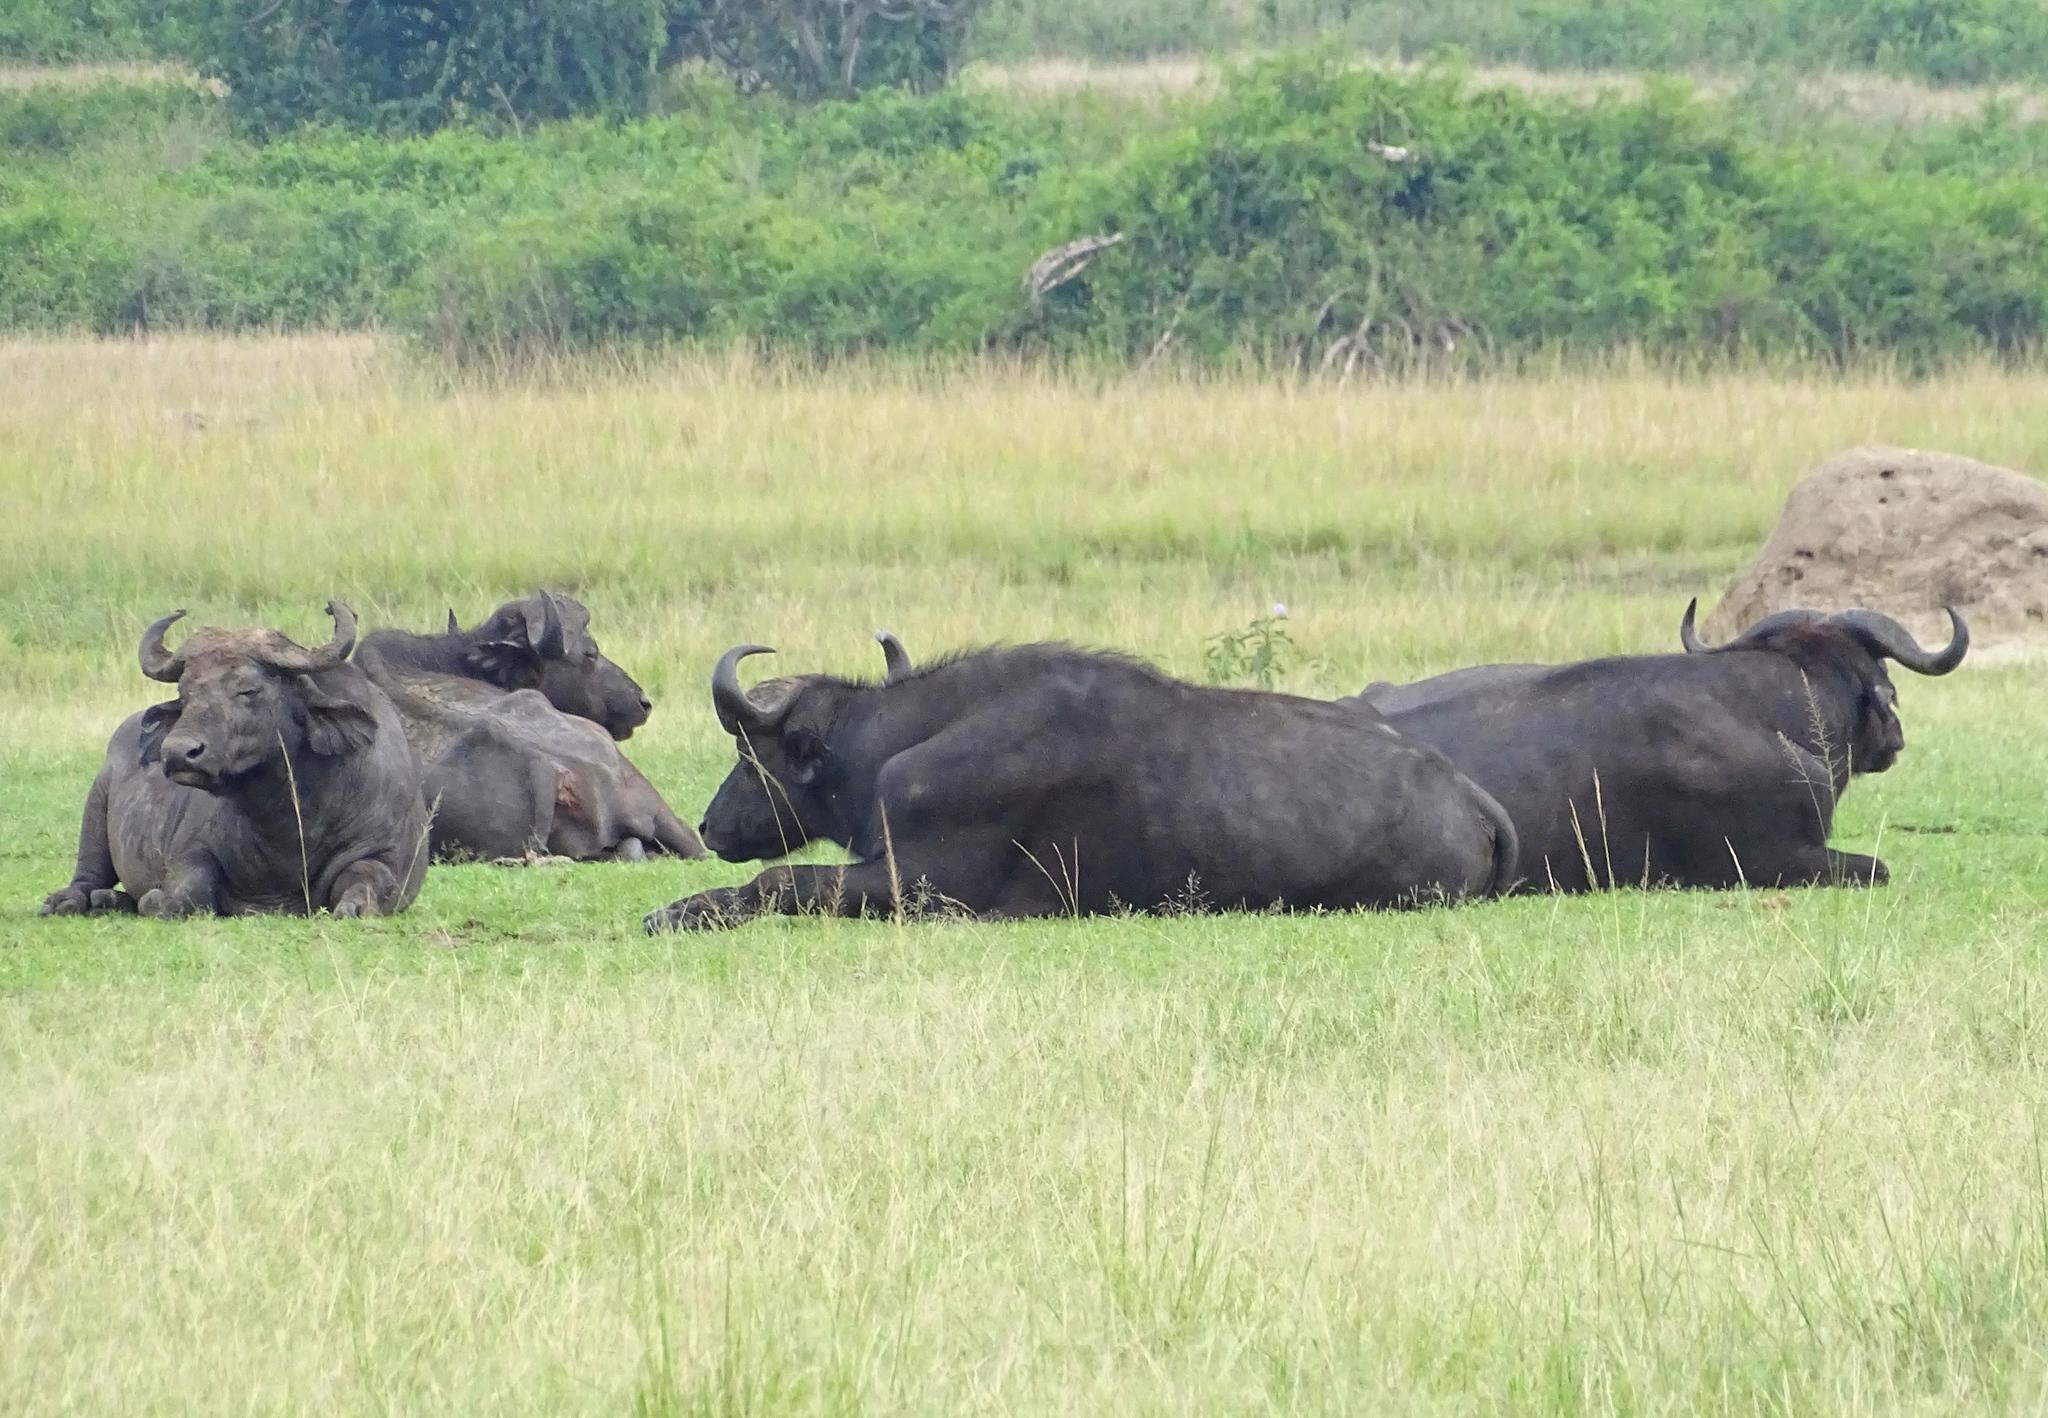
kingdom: Animalia
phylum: Chordata
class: Mammalia
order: Artiodactyla
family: Bovidae
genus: Syncerus
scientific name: Syncerus caffer
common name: African buffalo
